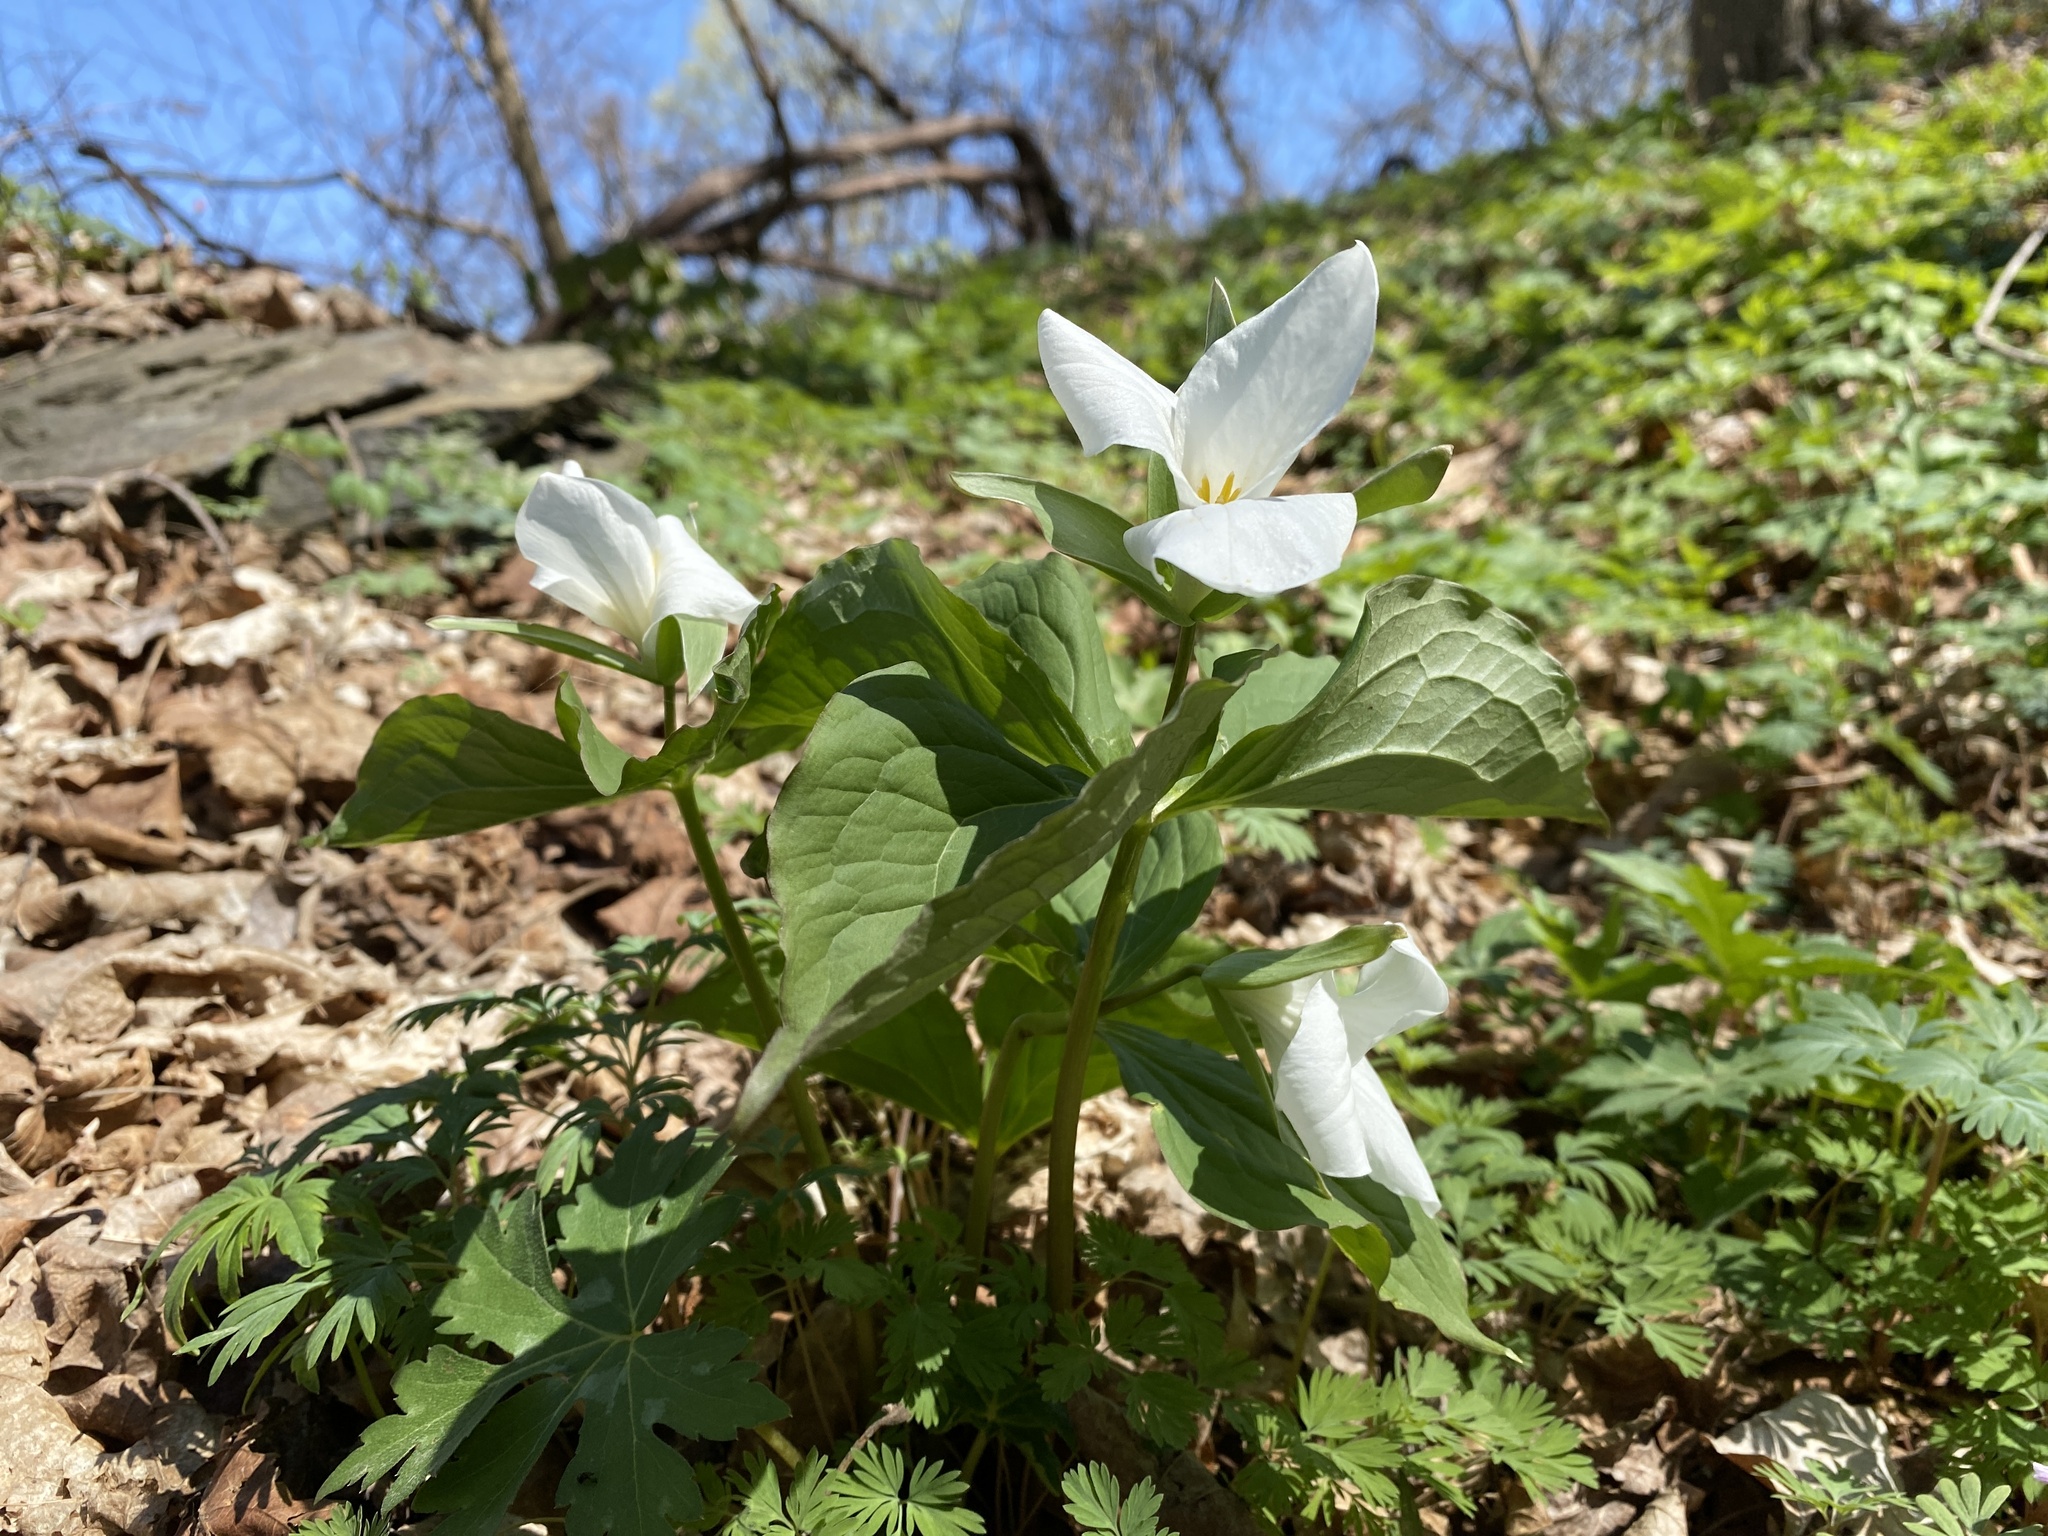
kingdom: Plantae
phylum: Tracheophyta
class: Liliopsida
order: Liliales
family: Melanthiaceae
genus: Trillium
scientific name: Trillium grandiflorum
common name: Great white trillium
